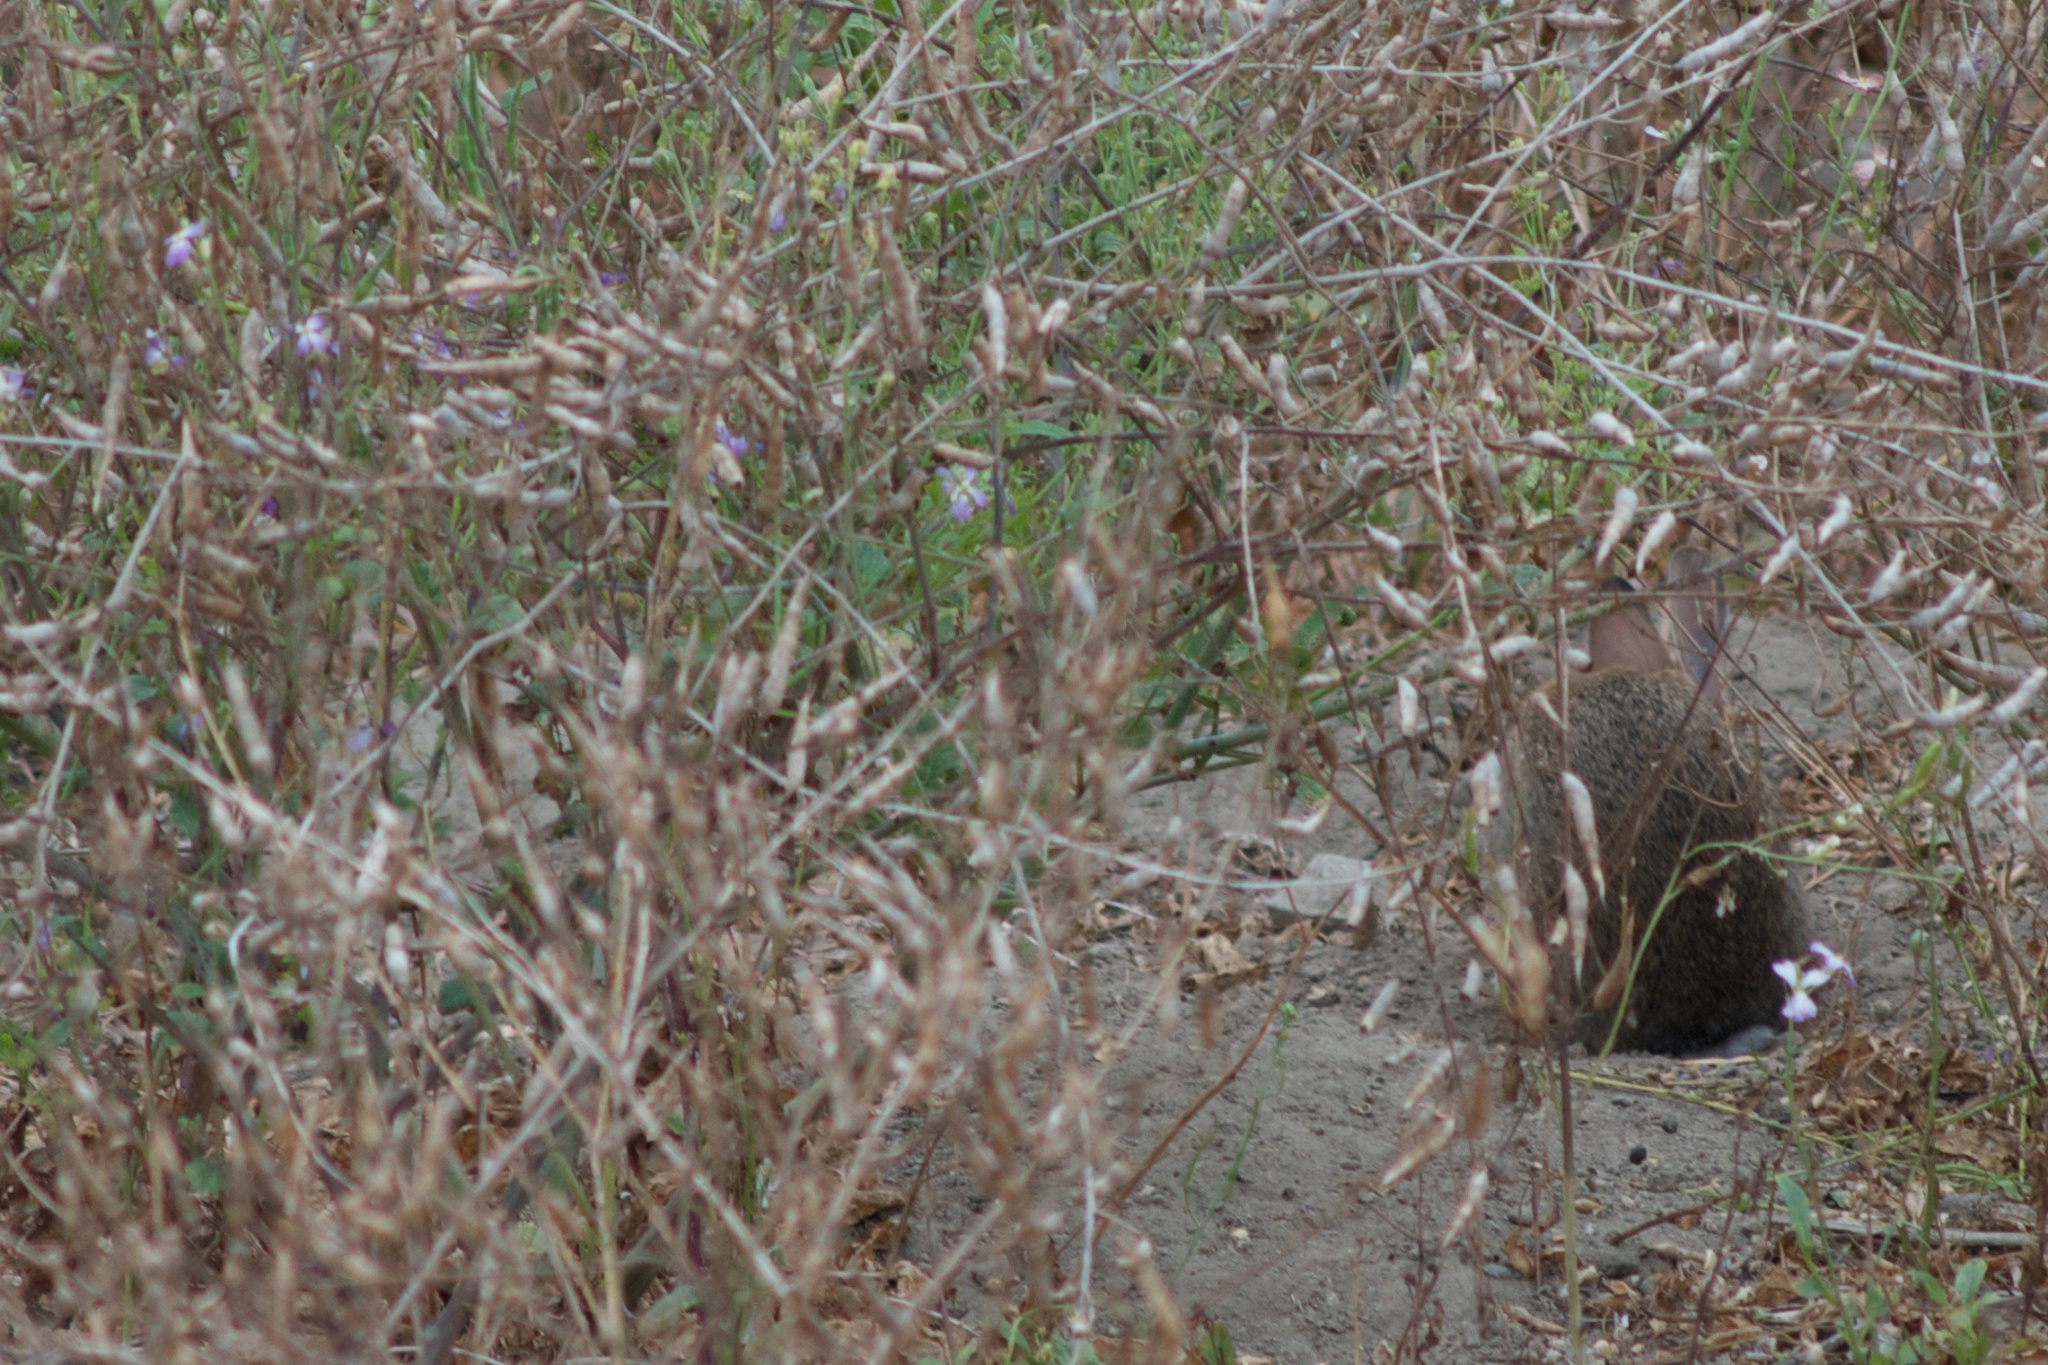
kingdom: Animalia
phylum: Chordata
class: Mammalia
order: Lagomorpha
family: Leporidae
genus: Sylvilagus
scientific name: Sylvilagus audubonii
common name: Desert cottontail
